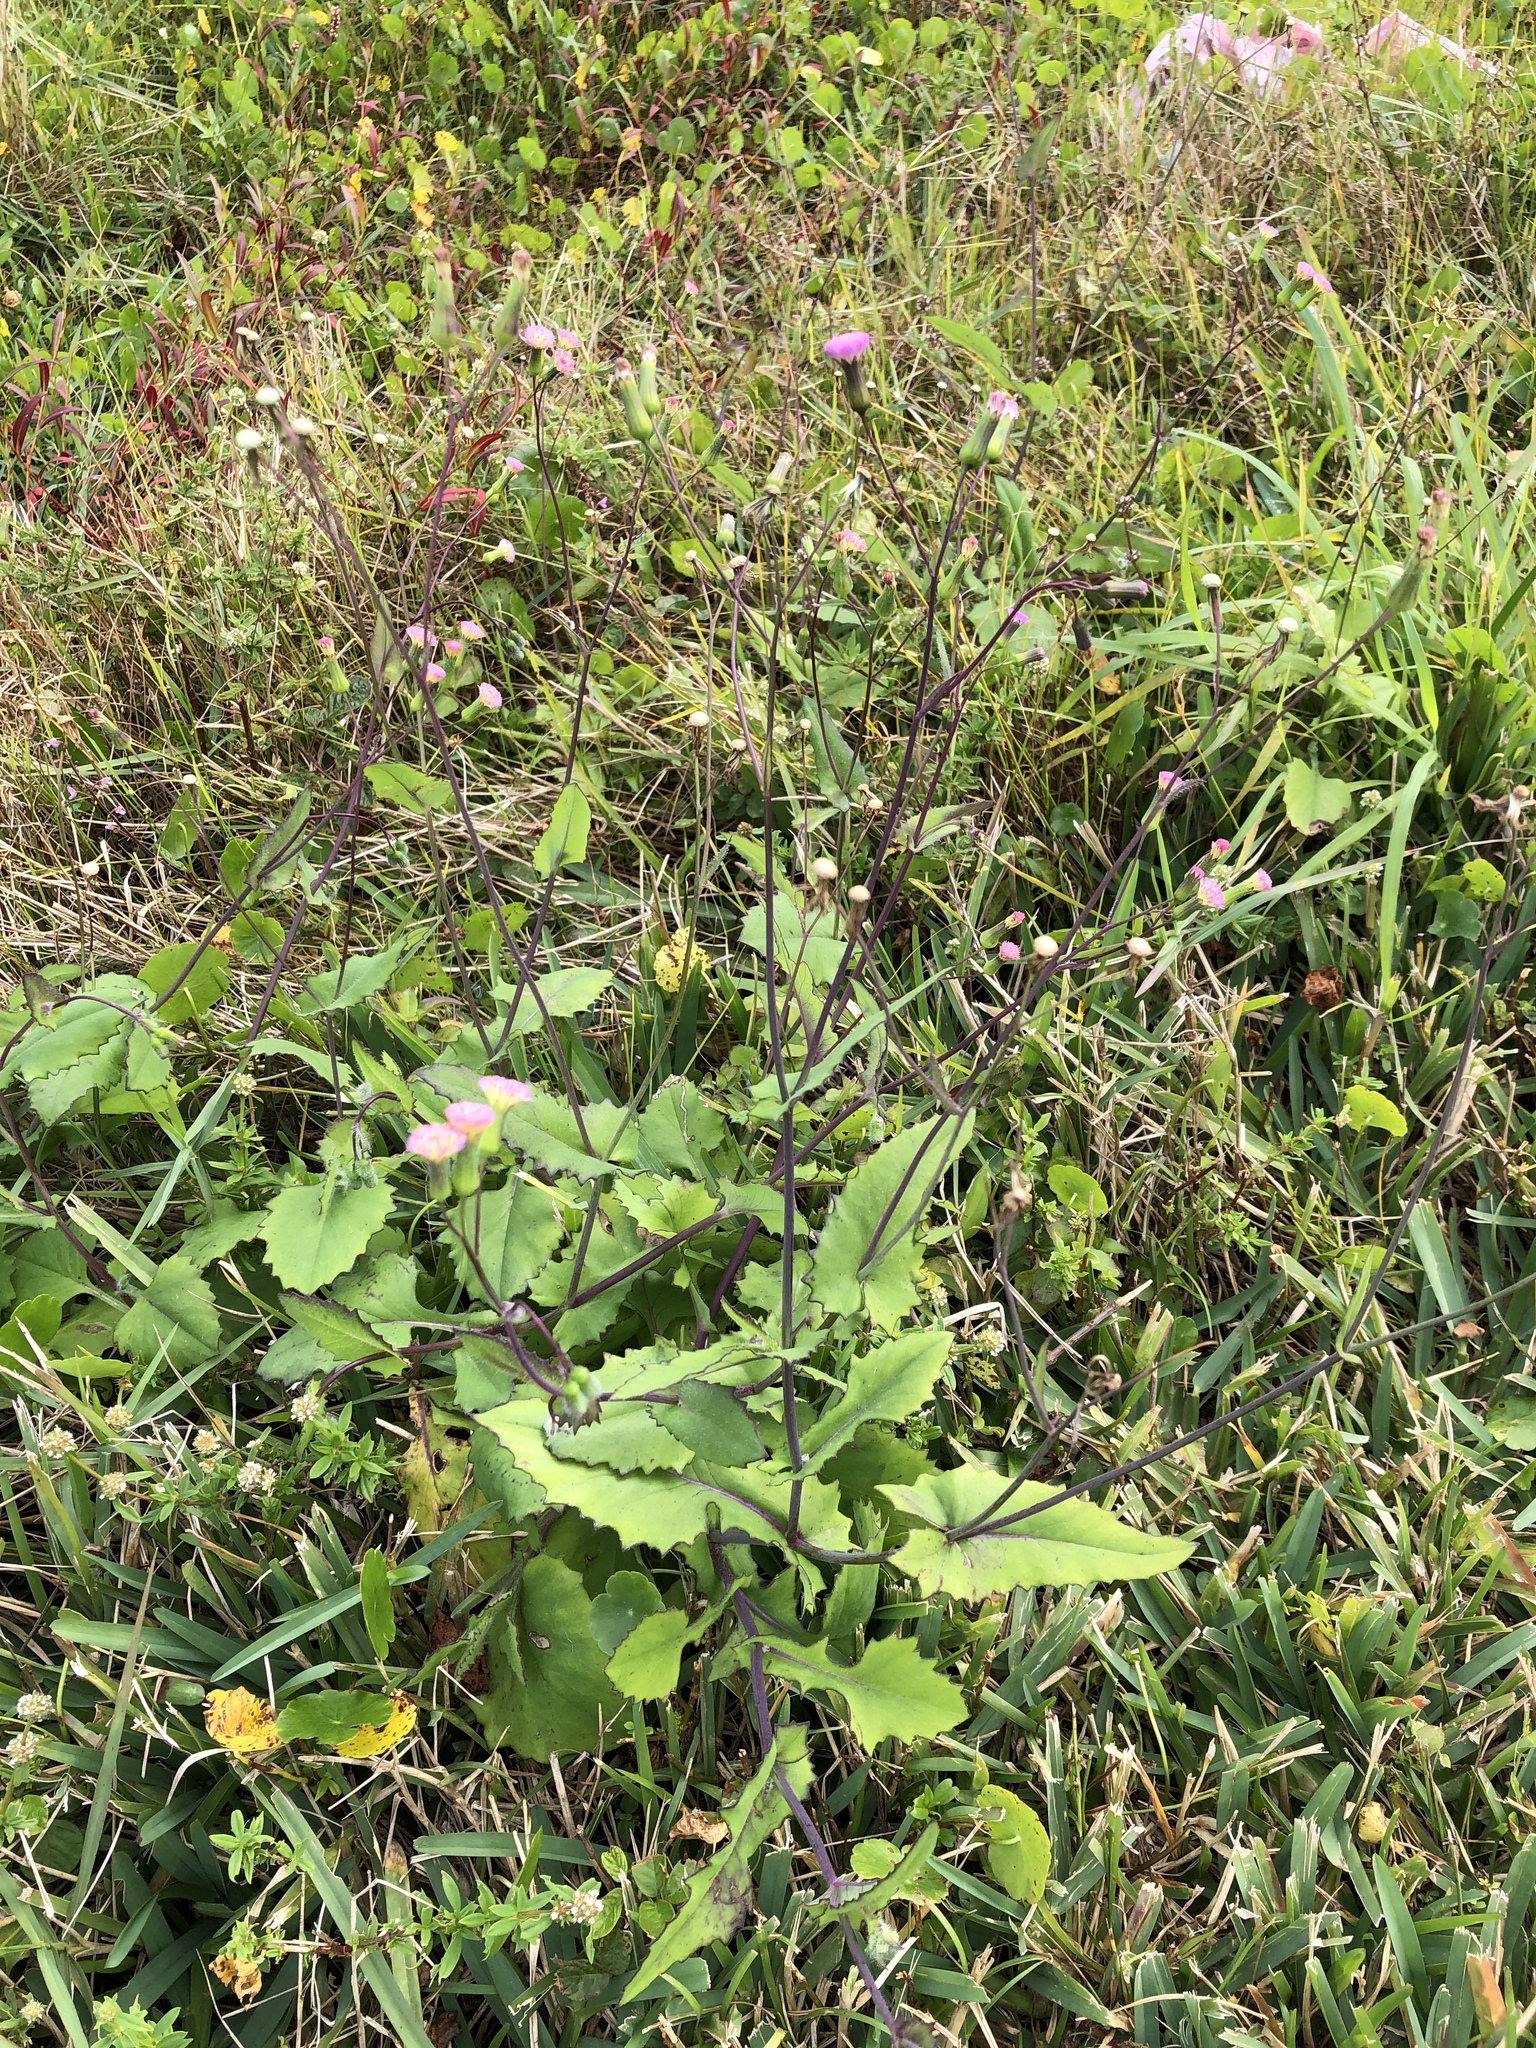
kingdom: Plantae
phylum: Tracheophyta
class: Magnoliopsida
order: Asterales
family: Asteraceae
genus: Emilia
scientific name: Emilia praetermissa
